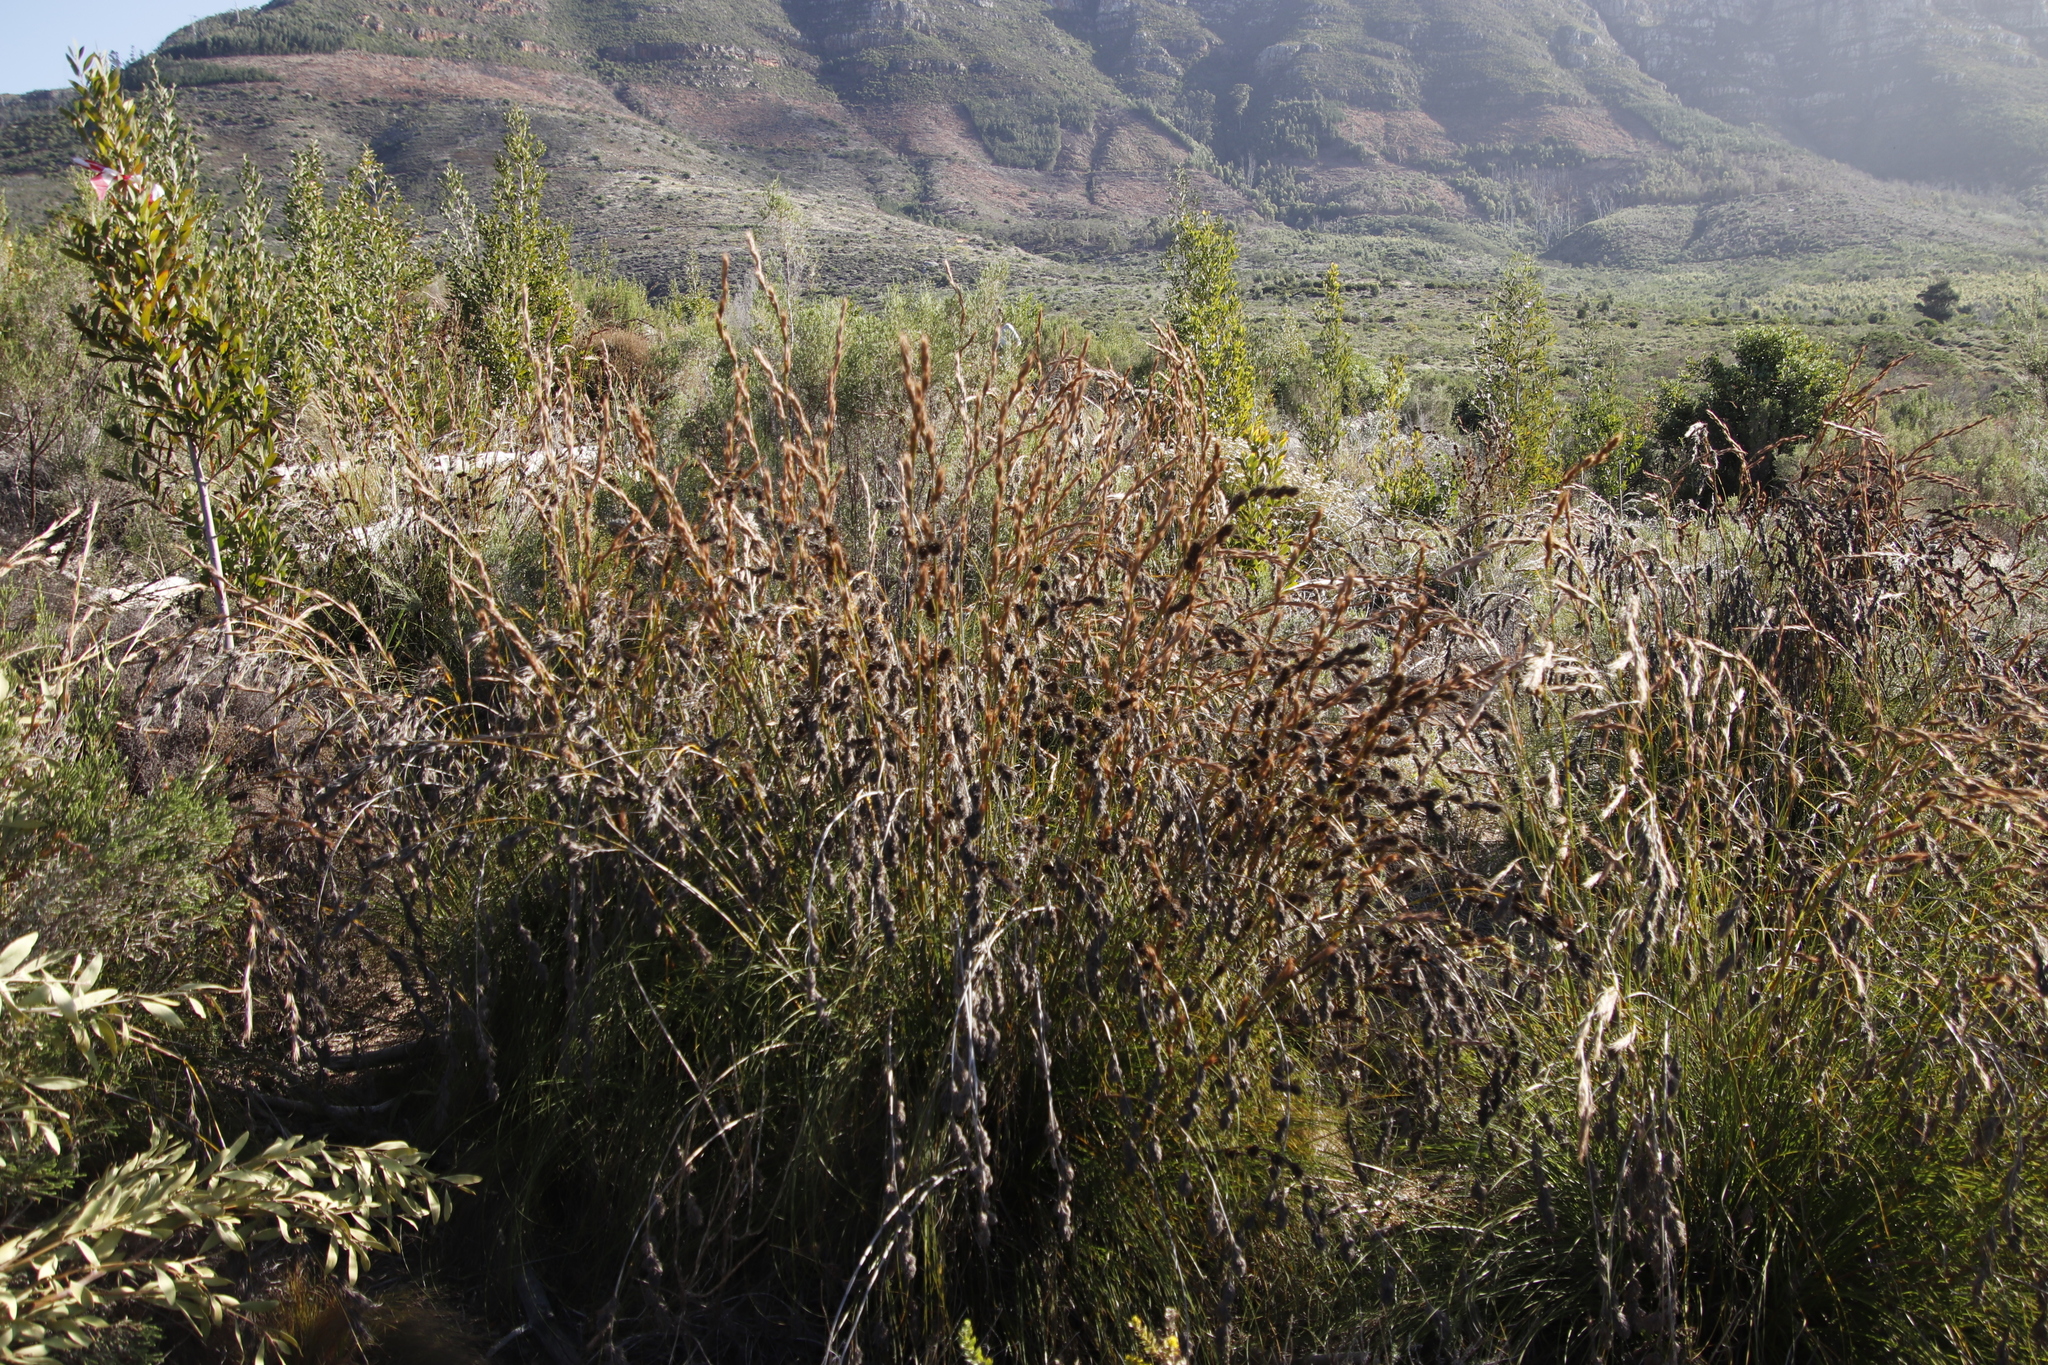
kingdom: Plantae
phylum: Tracheophyta
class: Liliopsida
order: Poales
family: Cyperaceae
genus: Tetraria
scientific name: Tetraria bromoides
